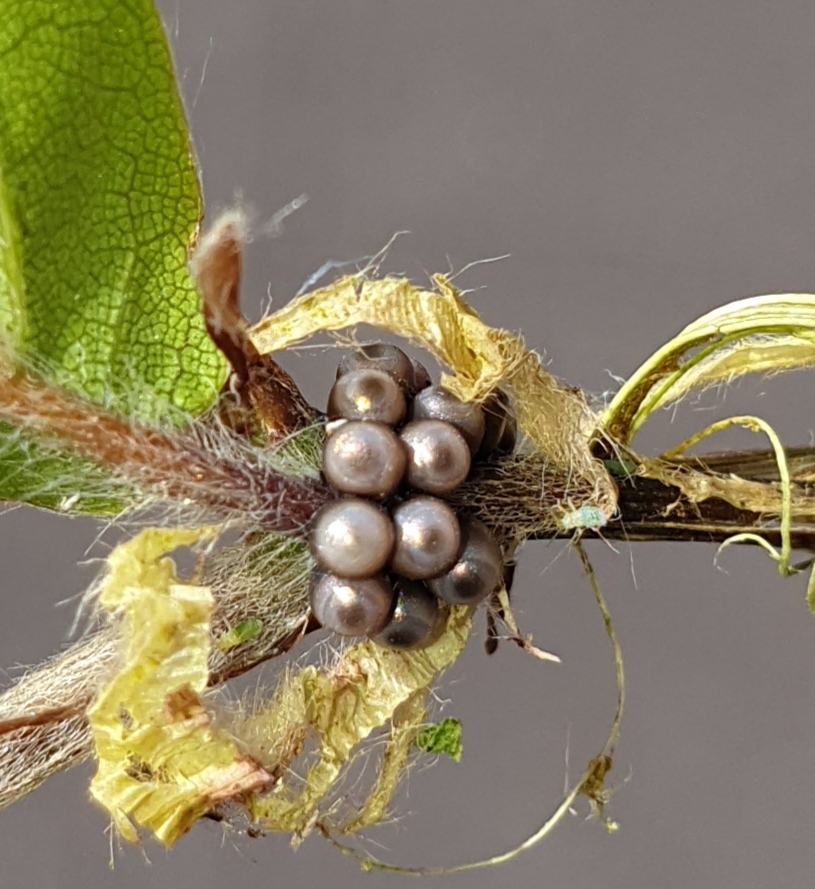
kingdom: Animalia
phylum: Arthropoda
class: Insecta
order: Hemiptera
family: Pentatomidae
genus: Rhaphigaster
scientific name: Rhaphigaster nebulosa
